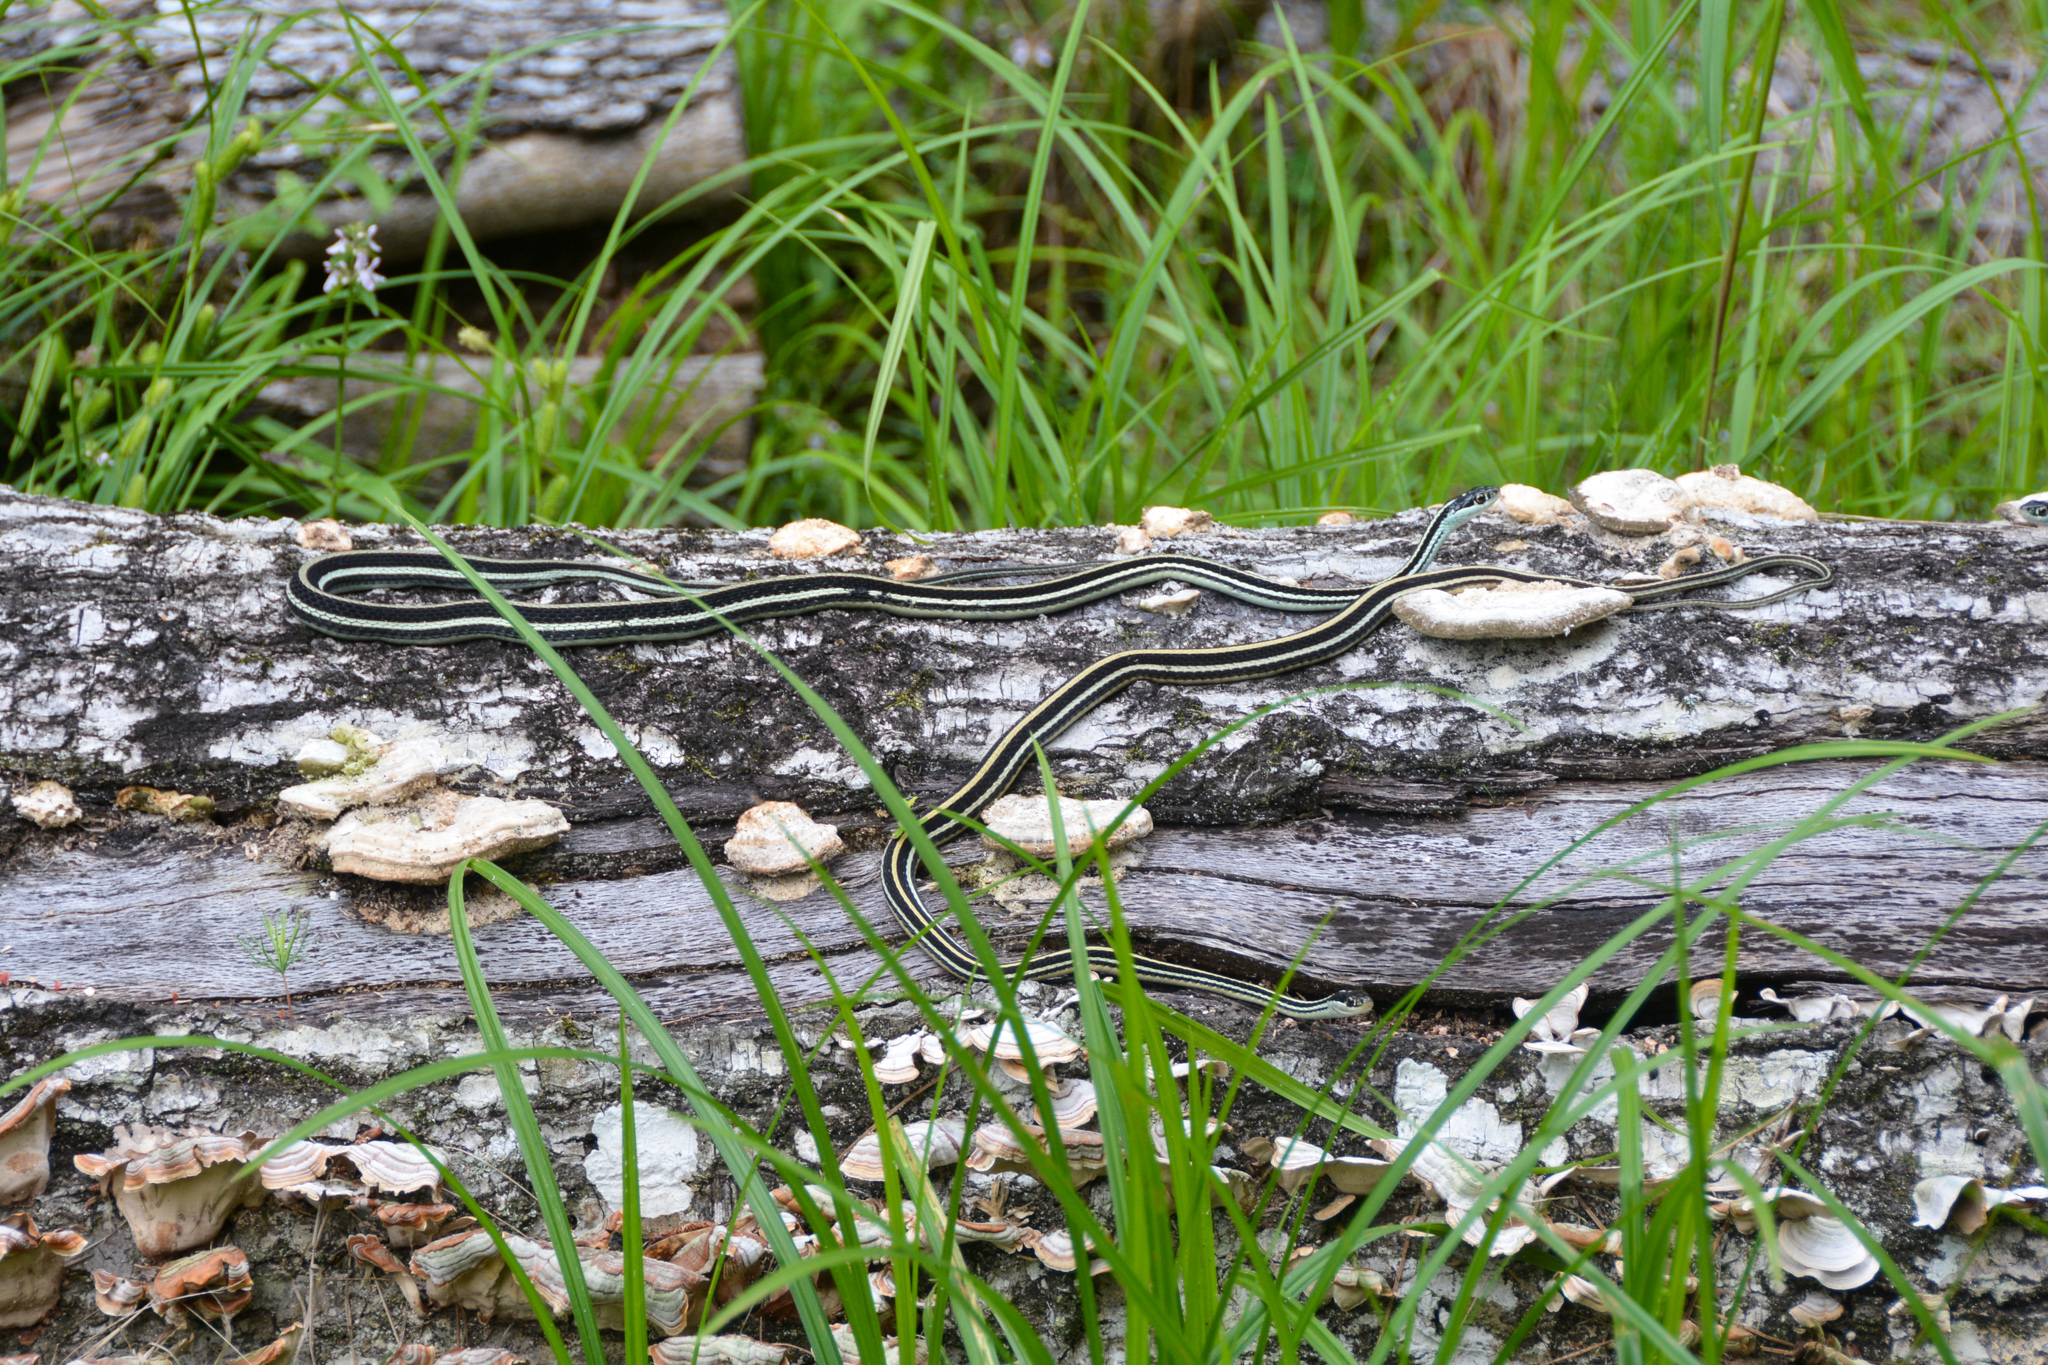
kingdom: Animalia
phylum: Chordata
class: Squamata
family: Colubridae
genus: Thamnophis
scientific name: Thamnophis proximus
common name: Western ribbon snake
